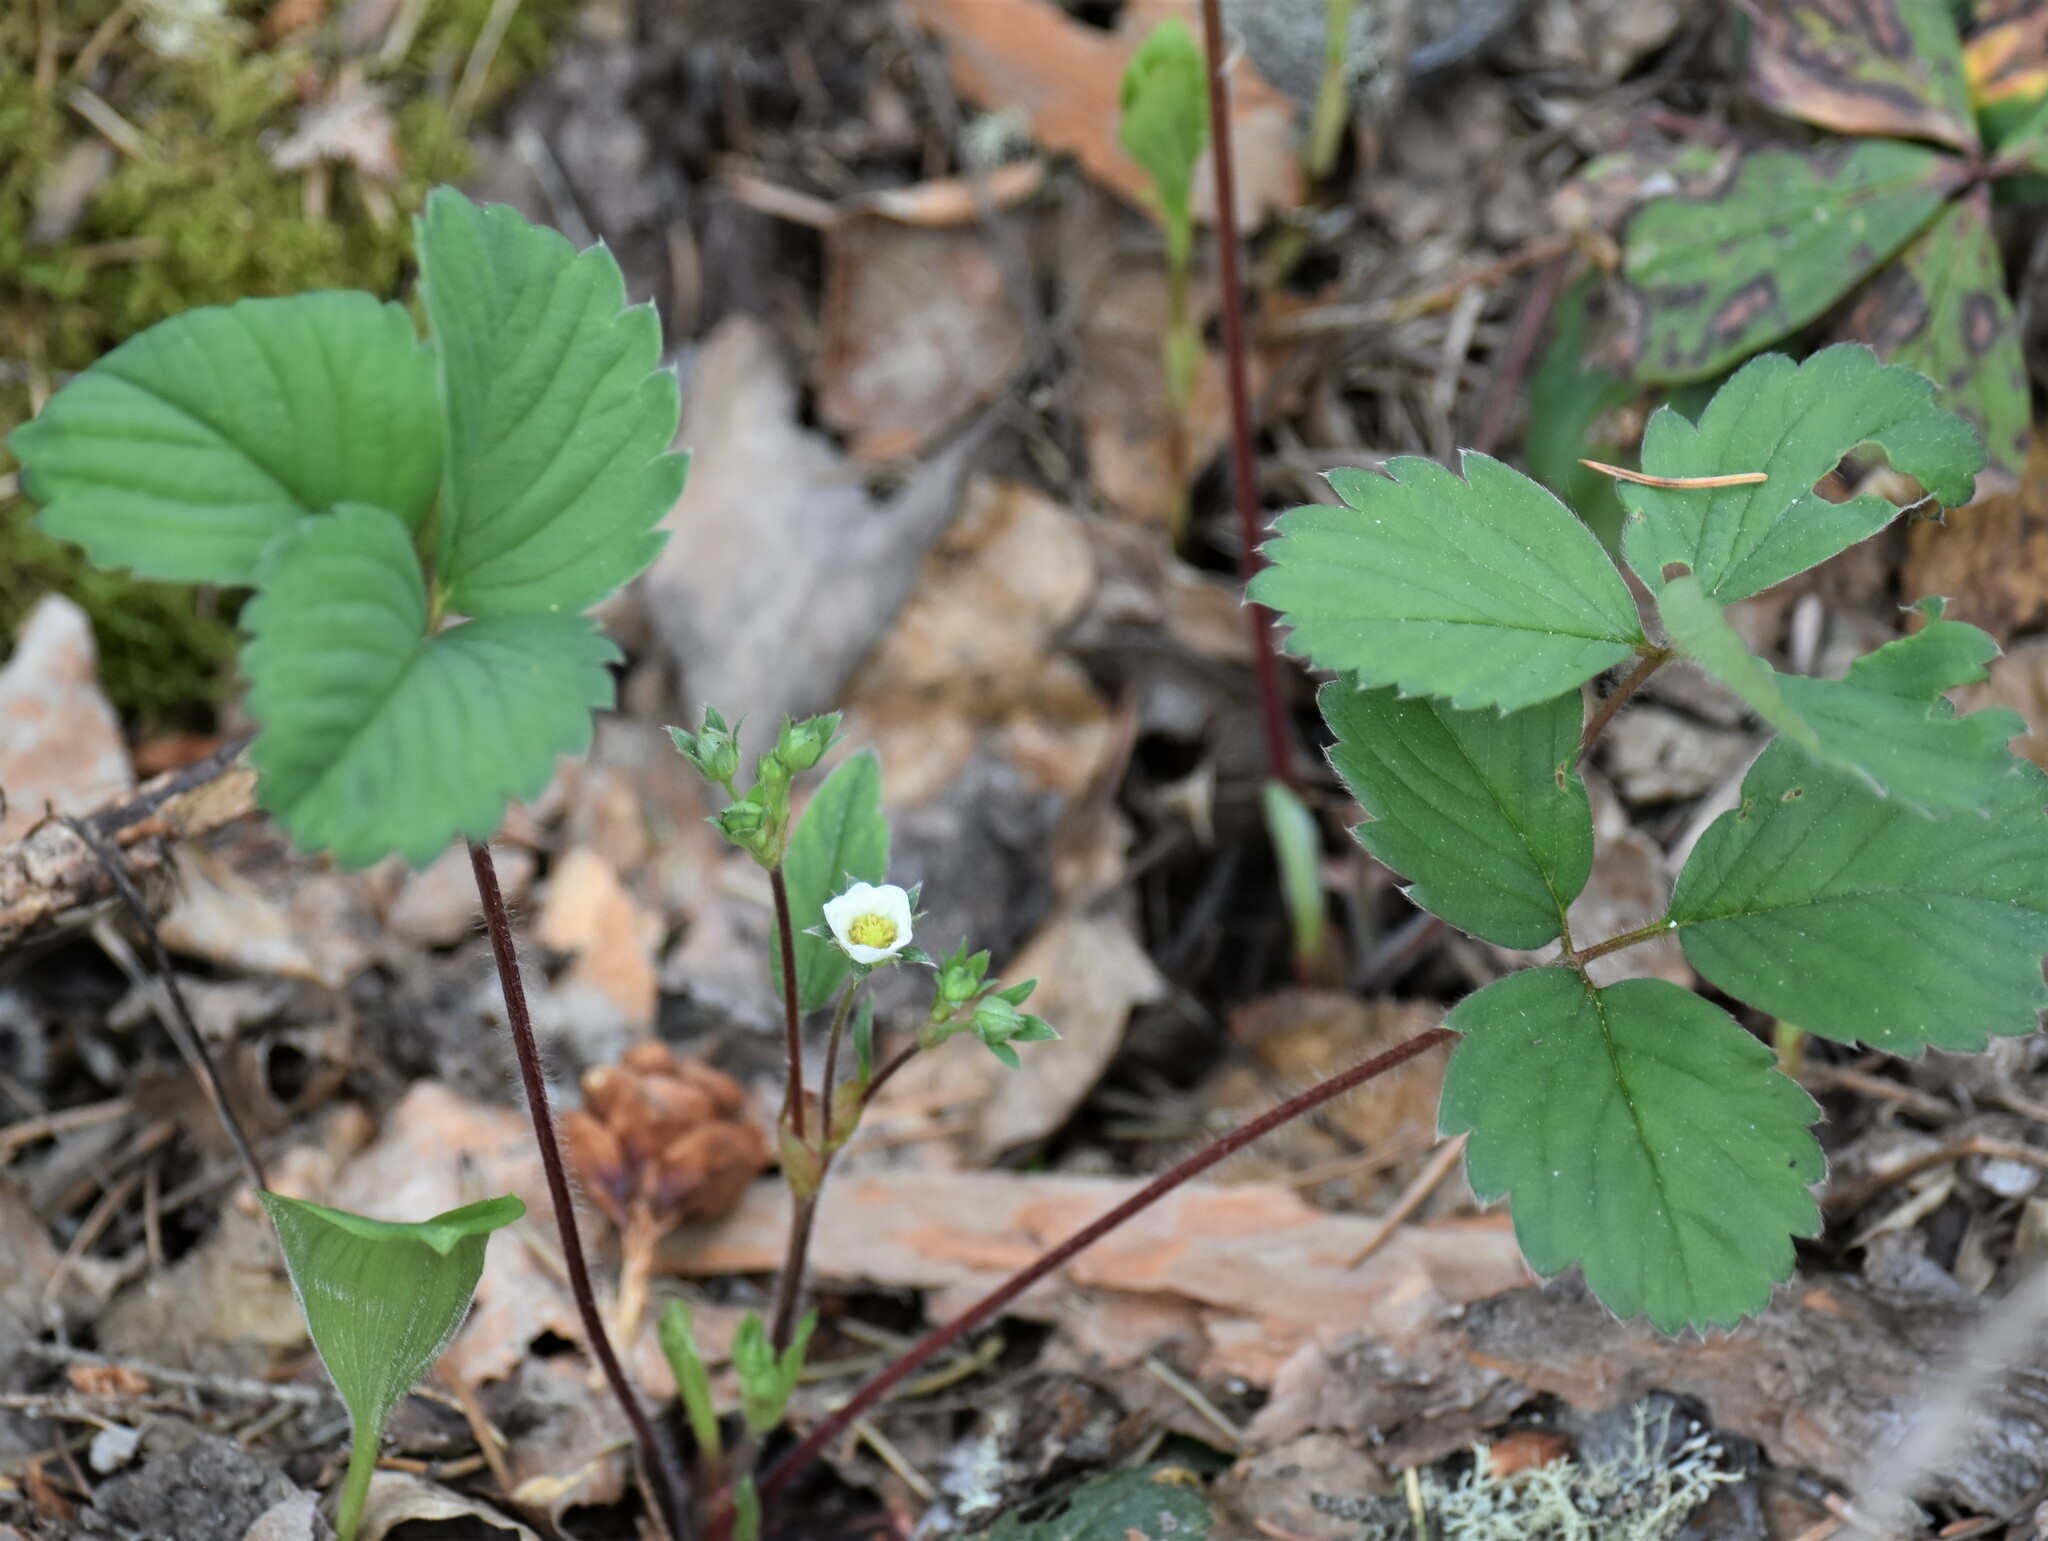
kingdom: Plantae
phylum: Tracheophyta
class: Magnoliopsida
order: Rosales
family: Rosaceae
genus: Fragaria
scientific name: Fragaria virginiana
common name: Thickleaved wild strawberry
